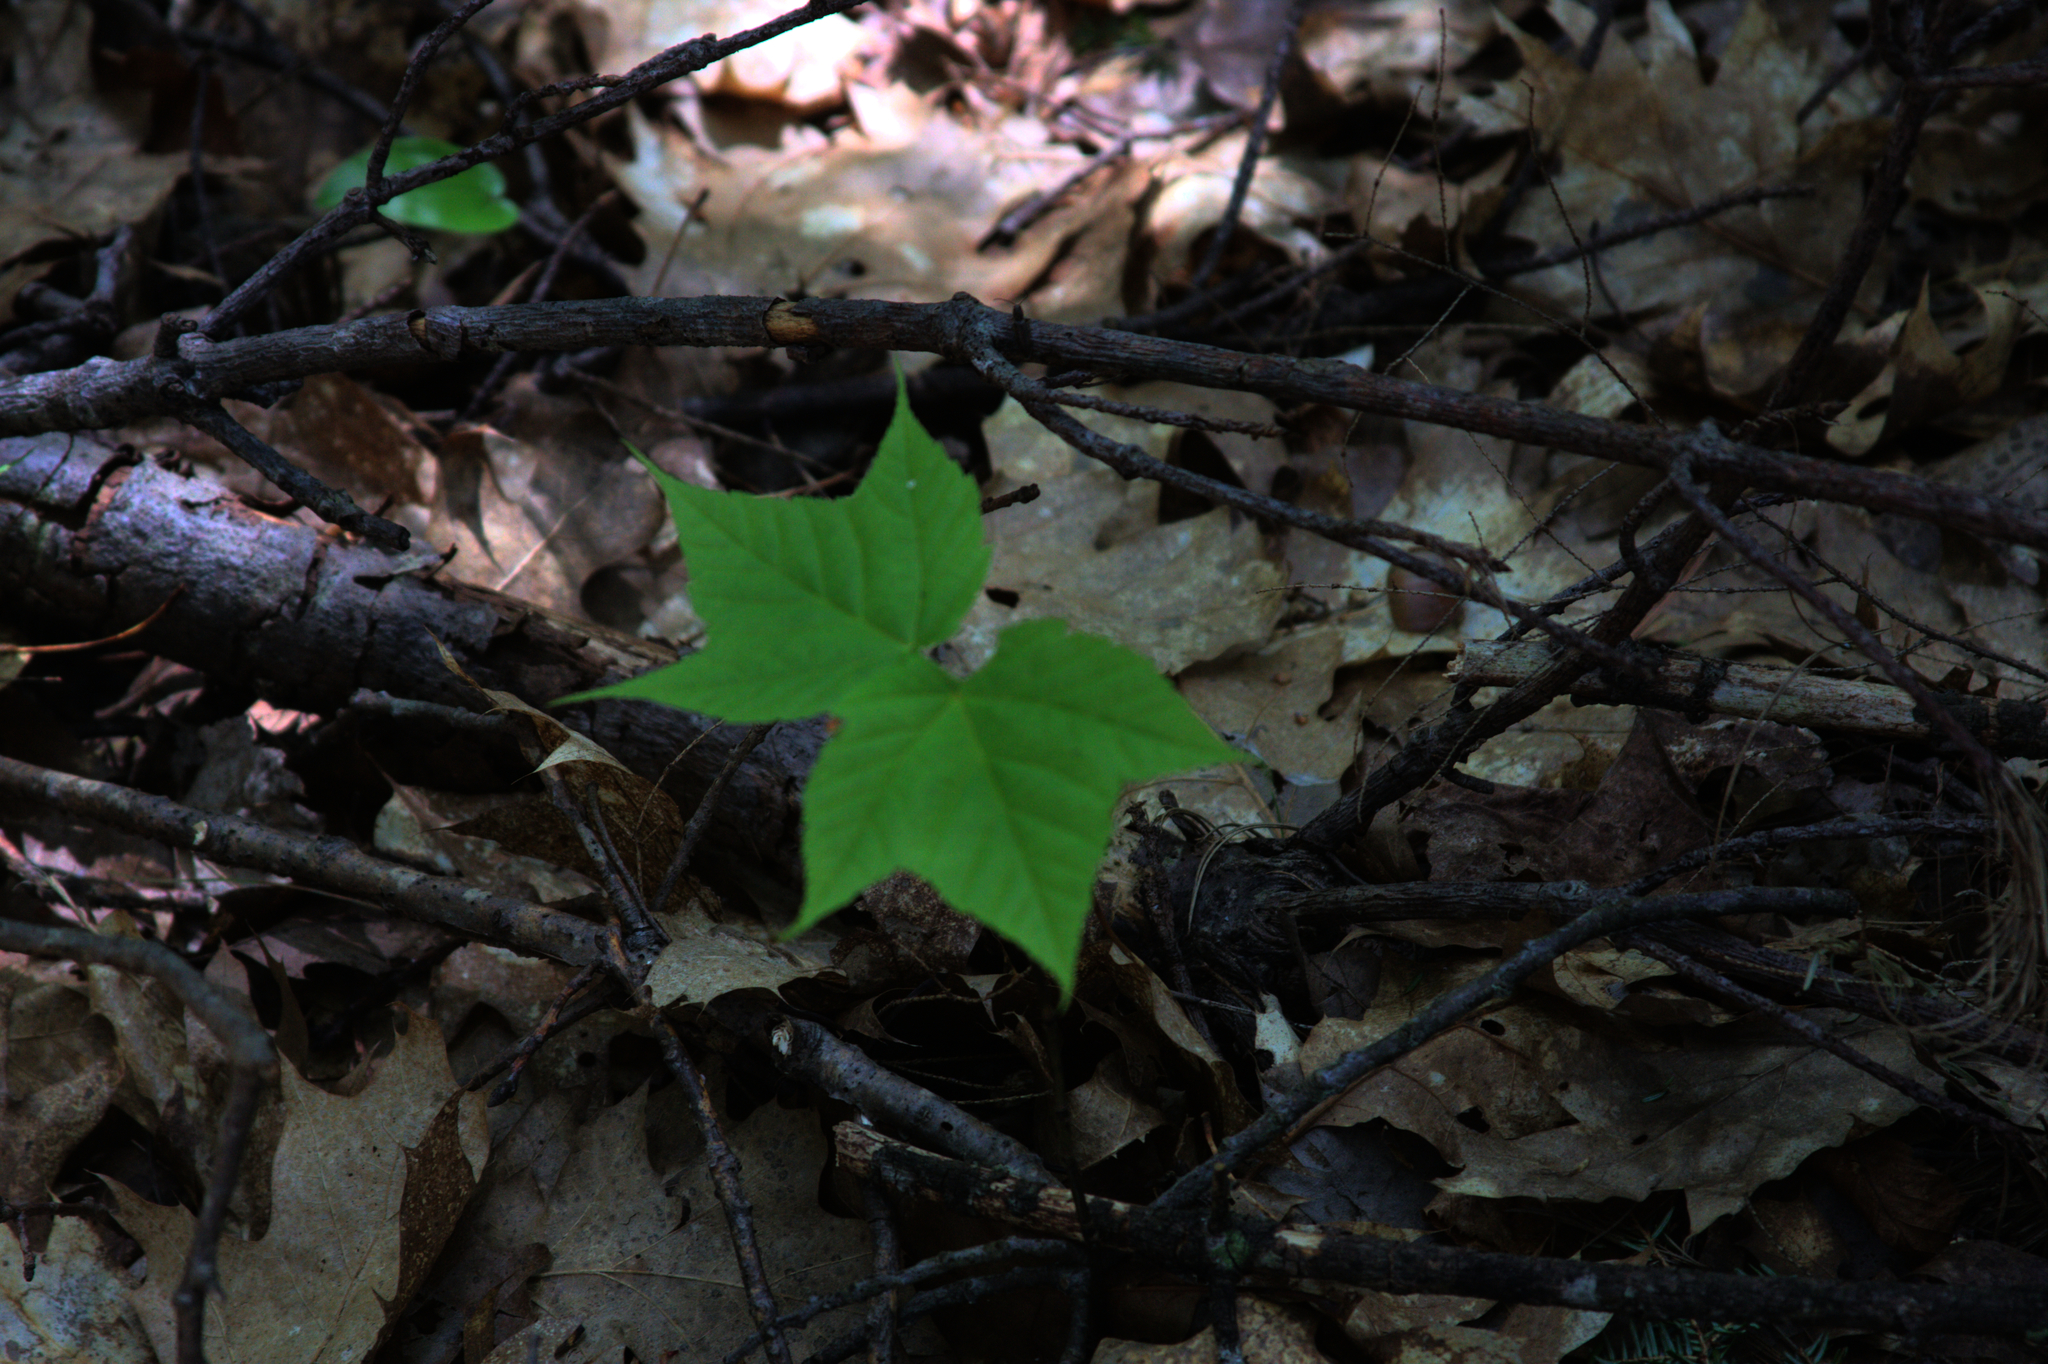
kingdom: Plantae
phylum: Tracheophyta
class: Magnoliopsida
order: Sapindales
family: Sapindaceae
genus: Acer
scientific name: Acer pensylvanicum
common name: Moosewood
